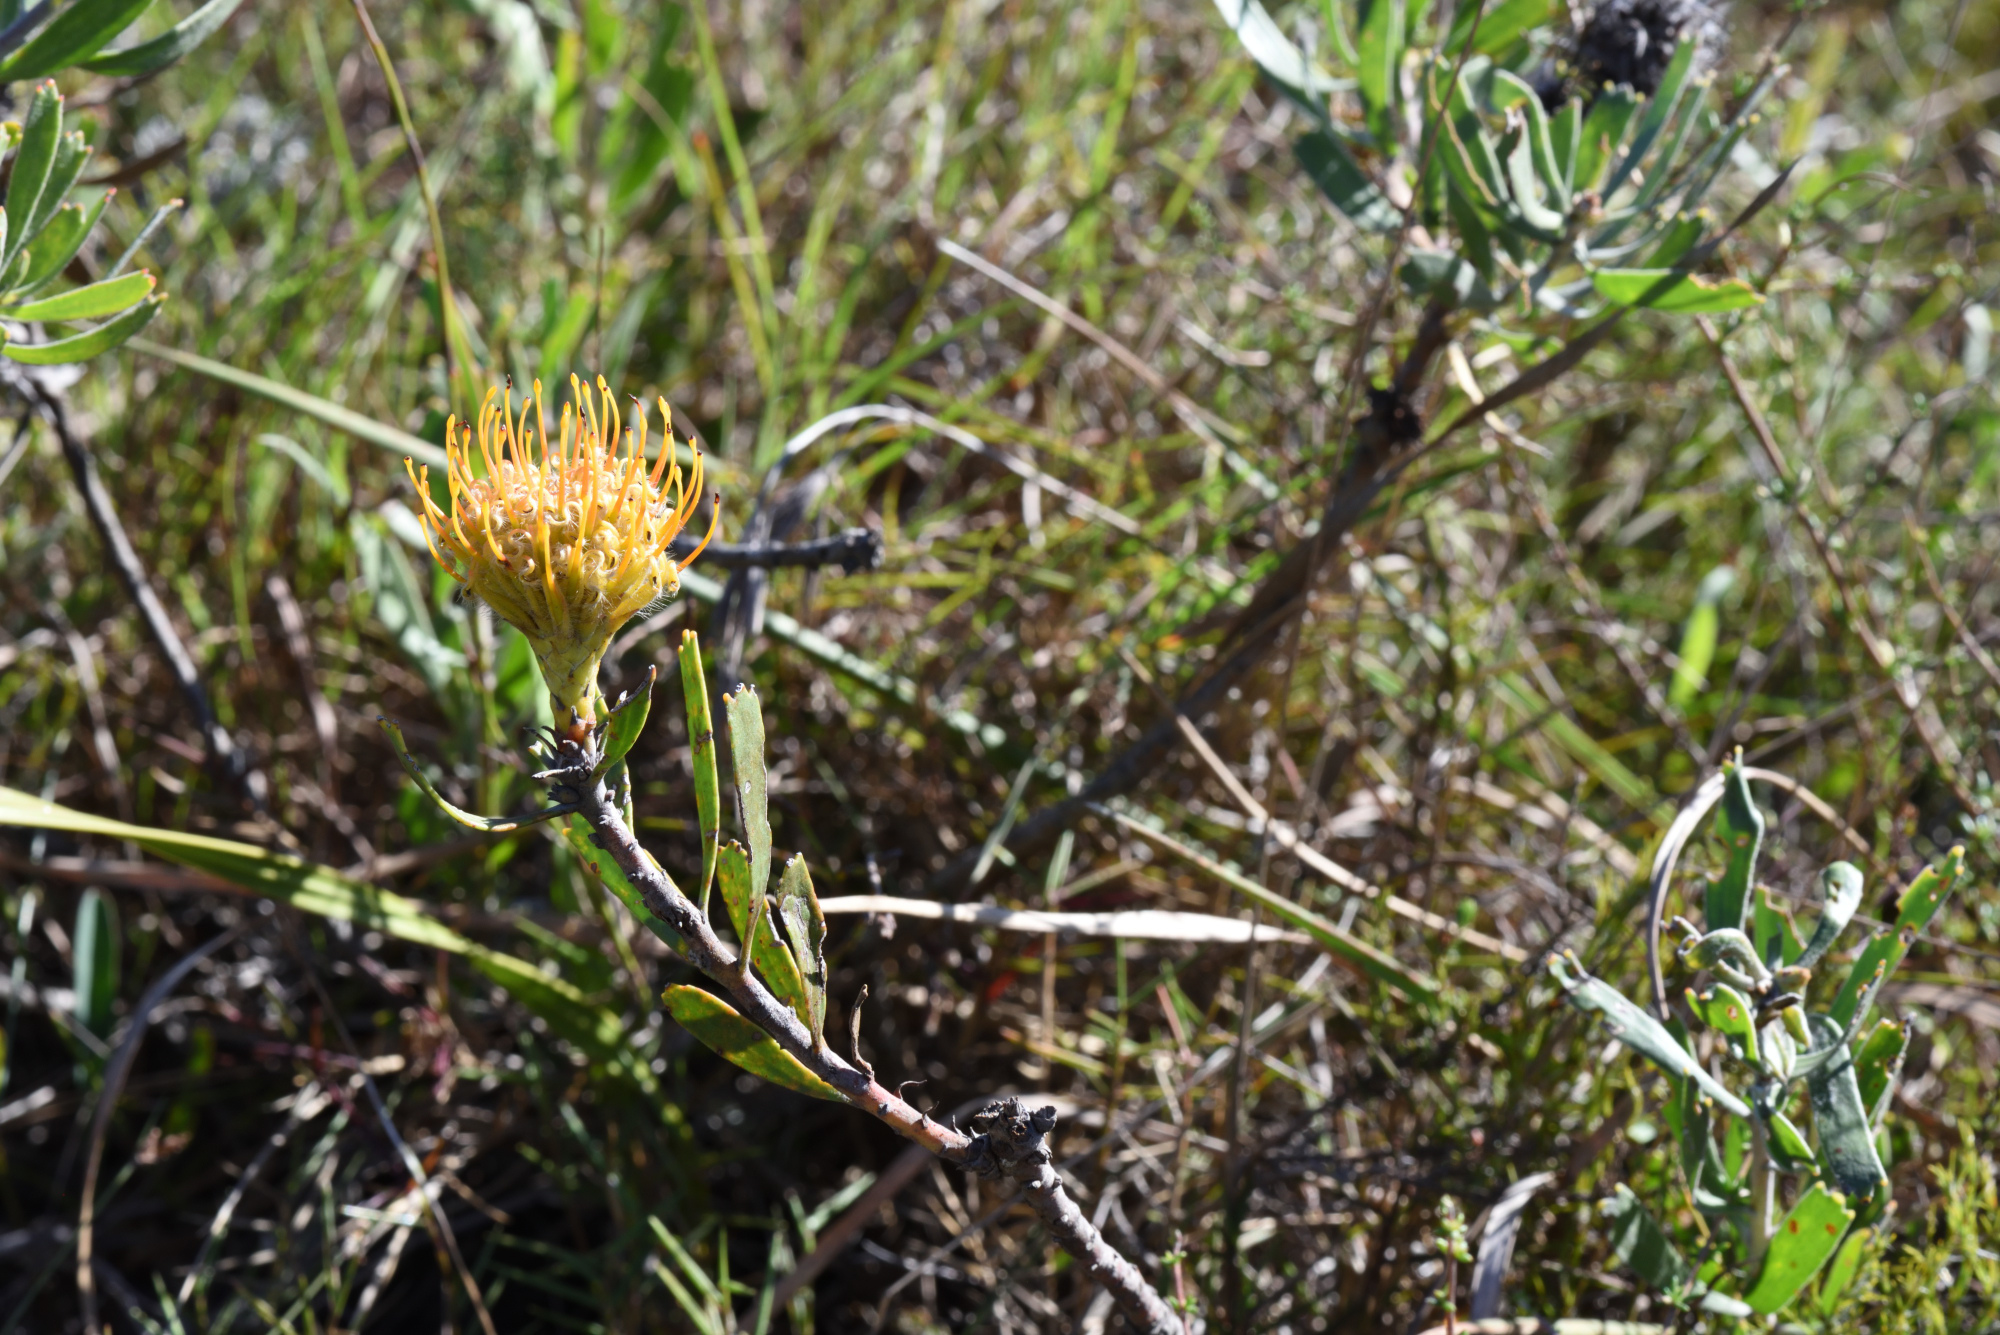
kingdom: Plantae
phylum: Tracheophyta
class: Magnoliopsida
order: Proteales
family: Proteaceae
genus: Leucospermum
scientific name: Leucospermum cuneiforme
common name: Common pincushion
